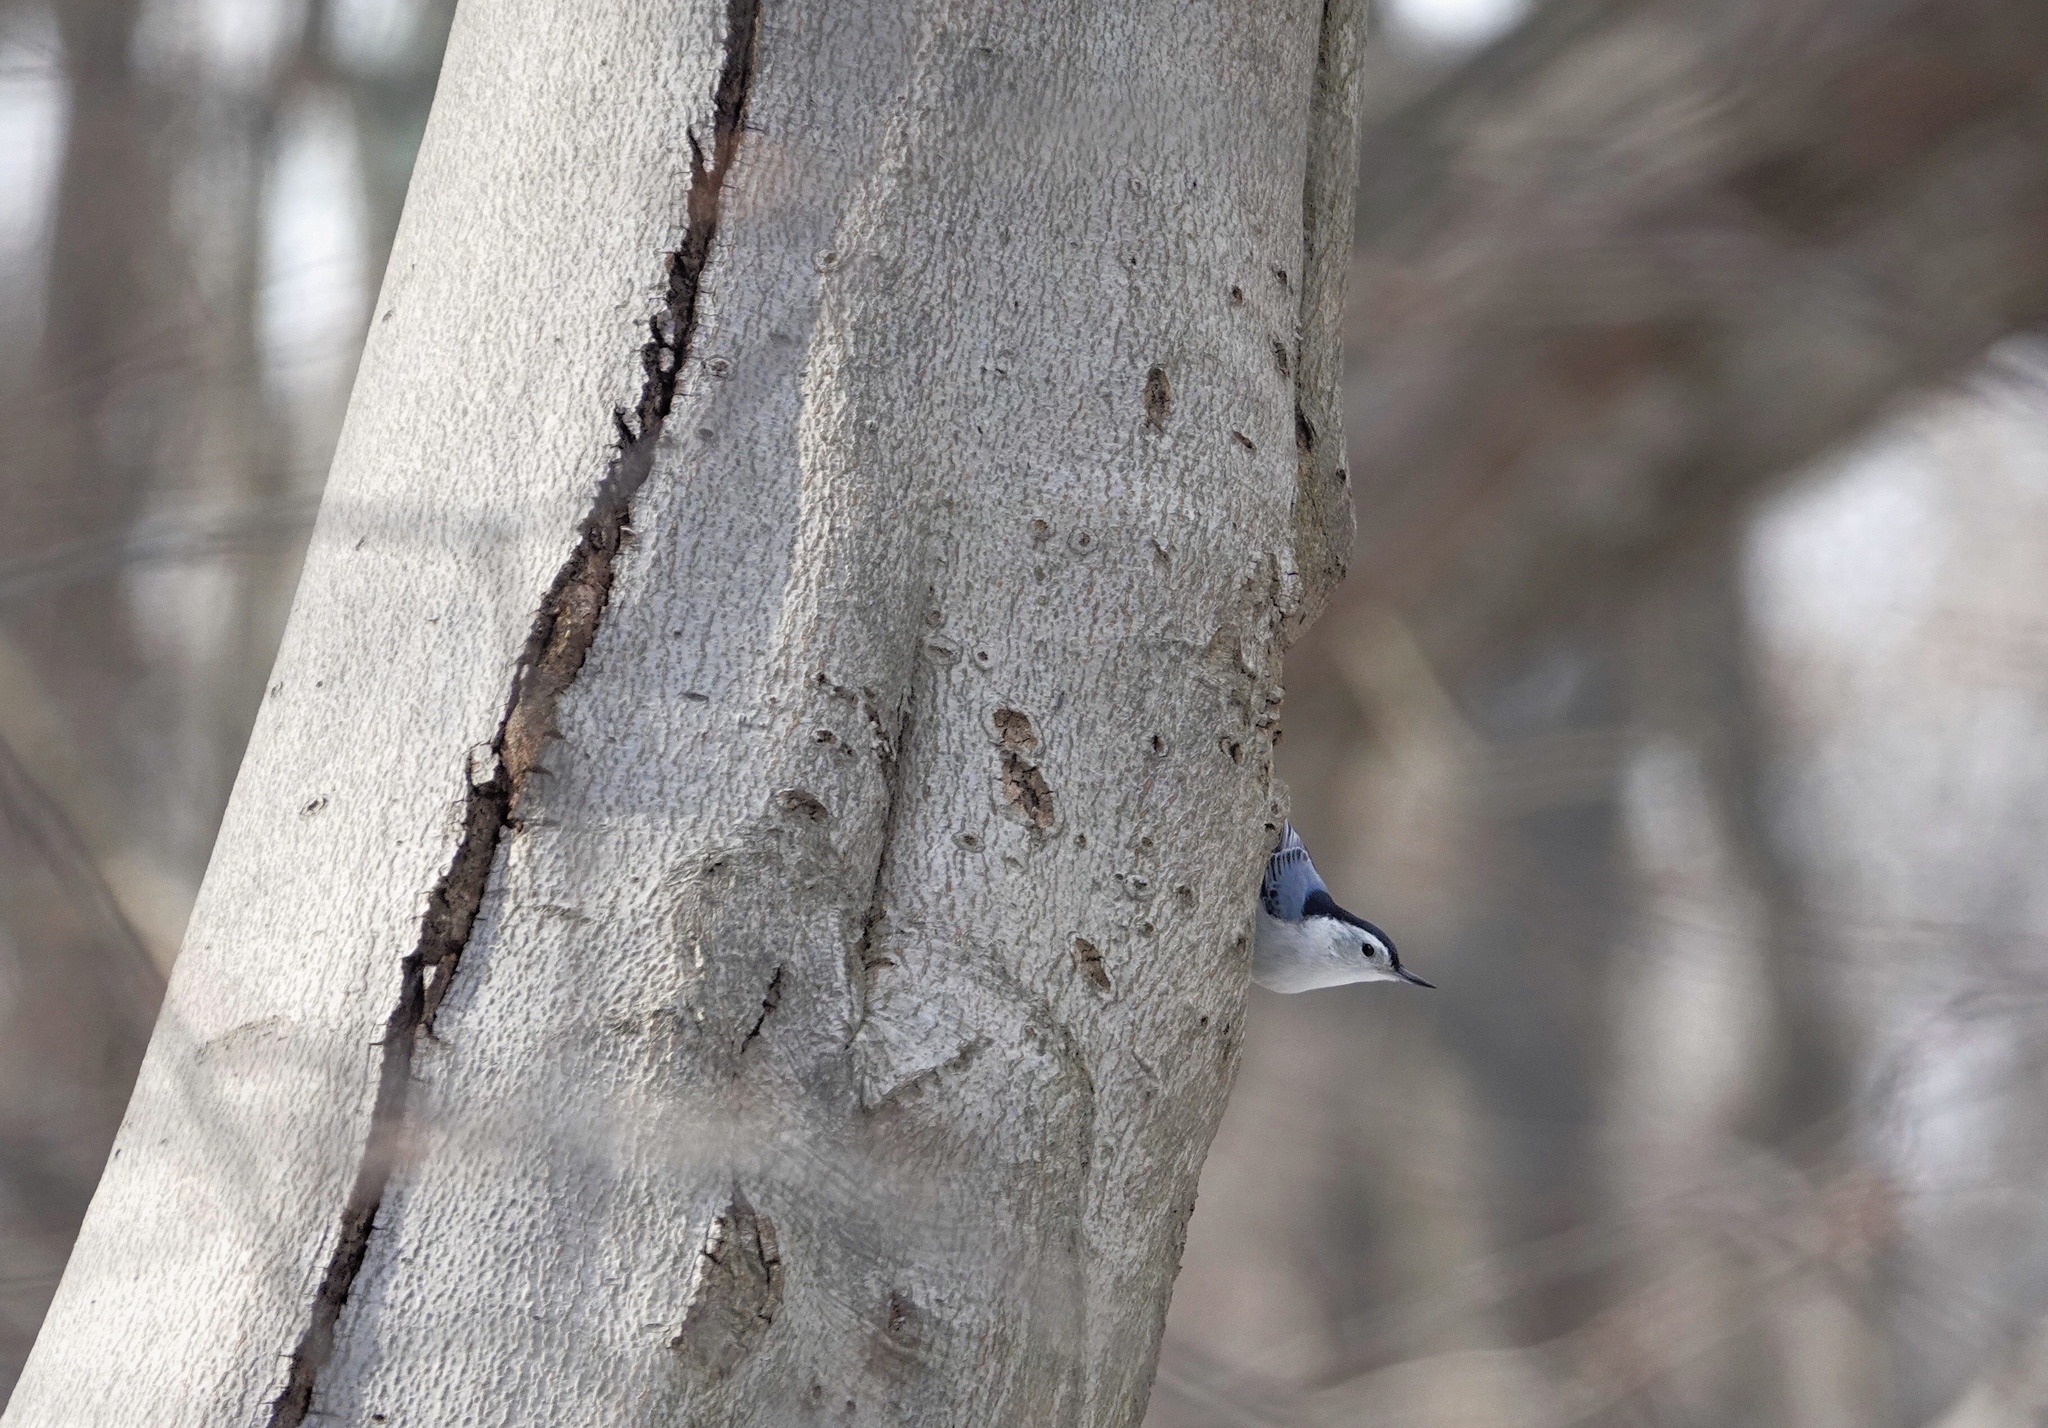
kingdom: Animalia
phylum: Chordata
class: Aves
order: Passeriformes
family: Sittidae
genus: Sitta
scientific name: Sitta carolinensis
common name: White-breasted nuthatch
